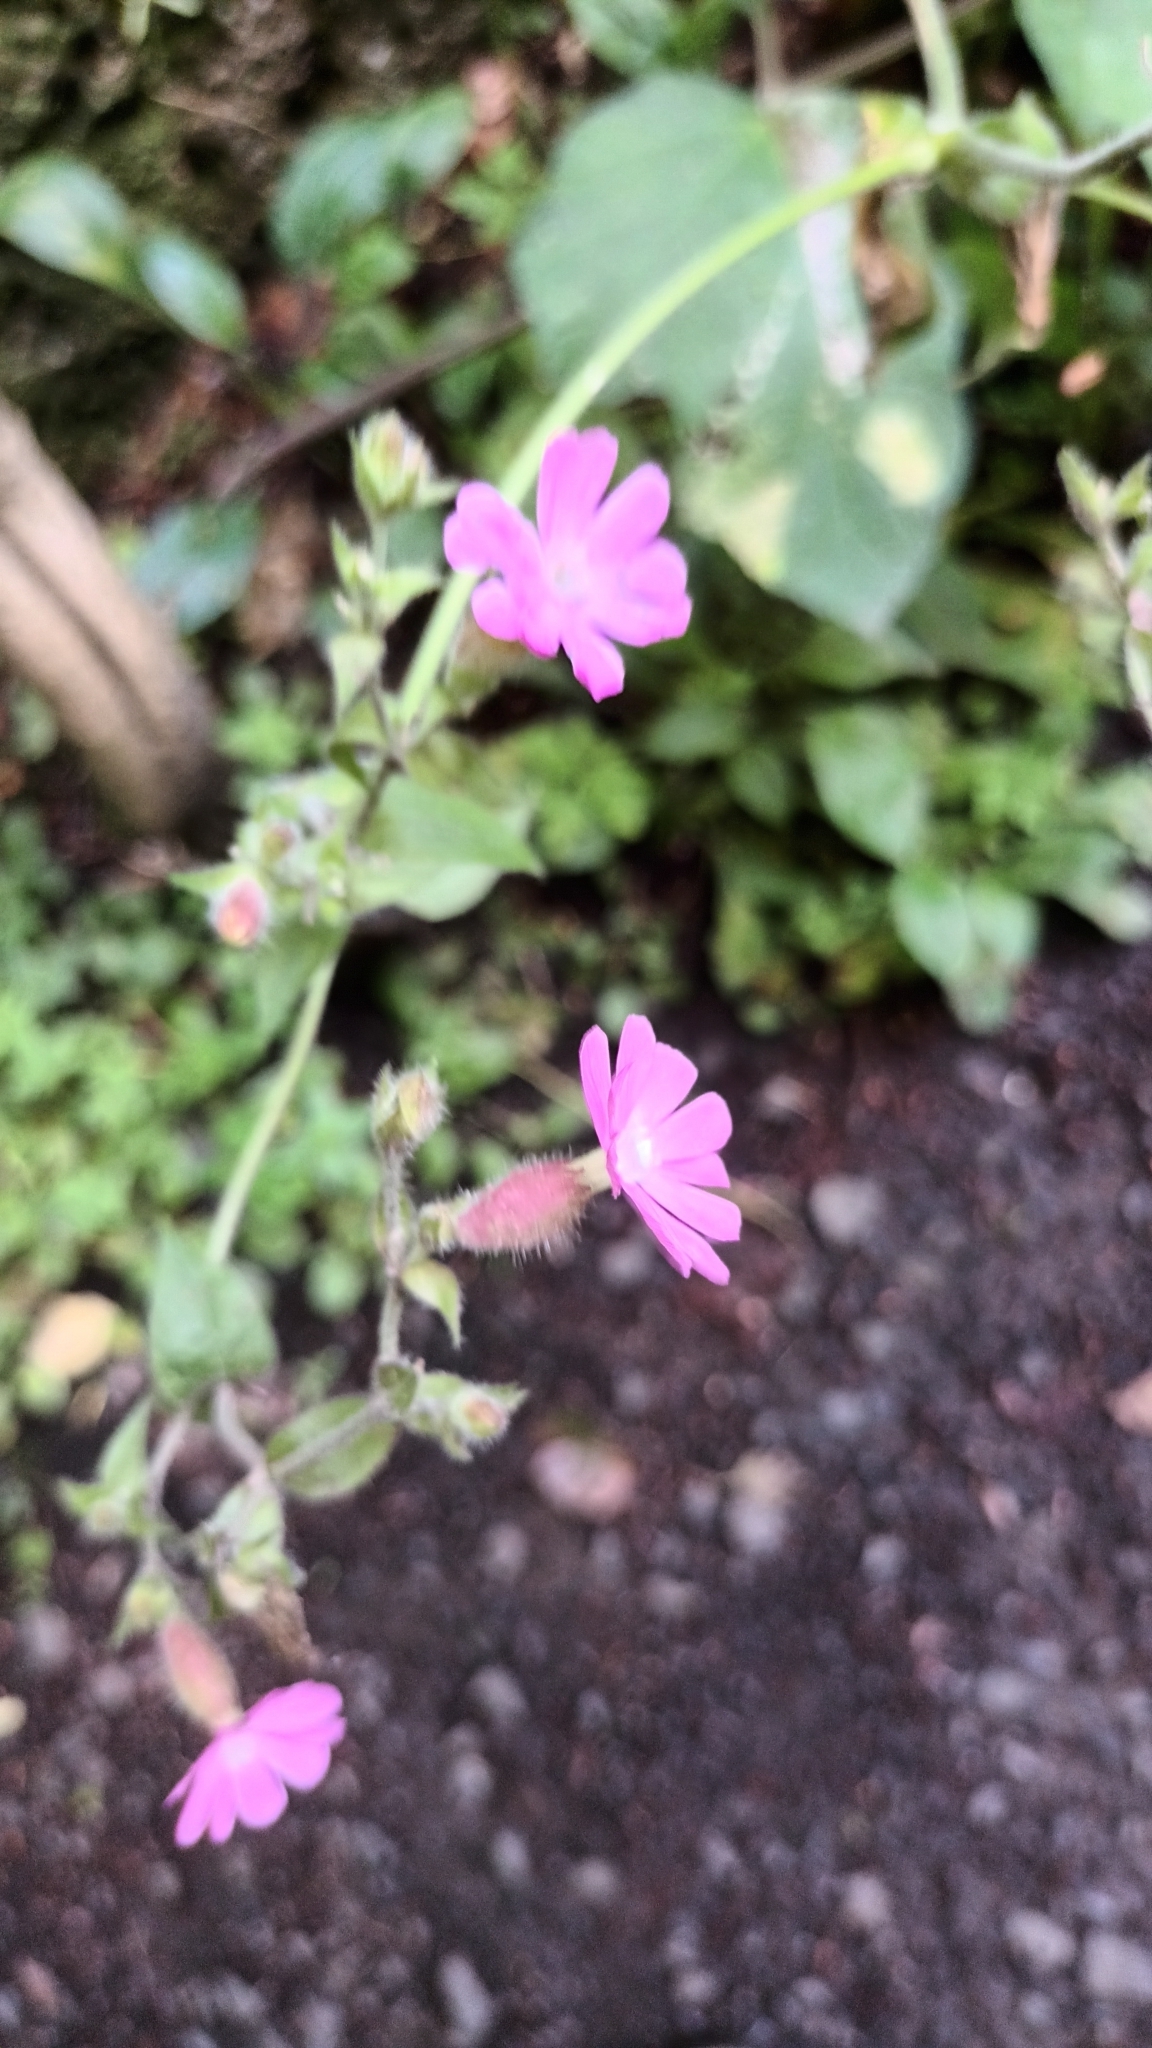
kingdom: Plantae
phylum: Tracheophyta
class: Magnoliopsida
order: Caryophyllales
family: Caryophyllaceae
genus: Silene
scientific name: Silene dioica
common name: Red campion
